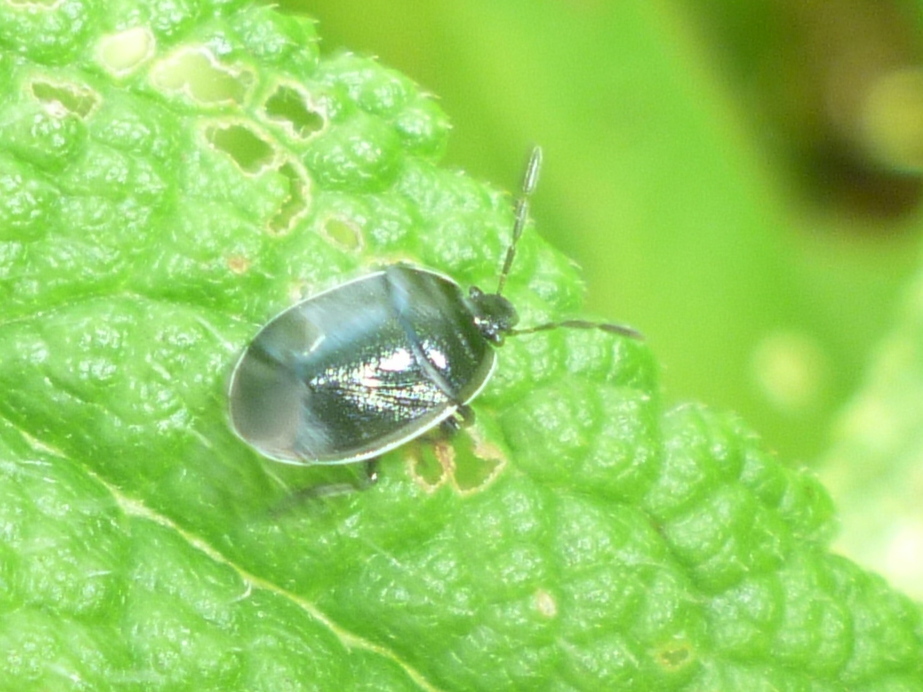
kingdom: Animalia
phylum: Arthropoda
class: Insecta
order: Hemiptera
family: Cydnidae
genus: Sehirus
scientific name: Sehirus cinctus
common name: White-margined burrower bug
